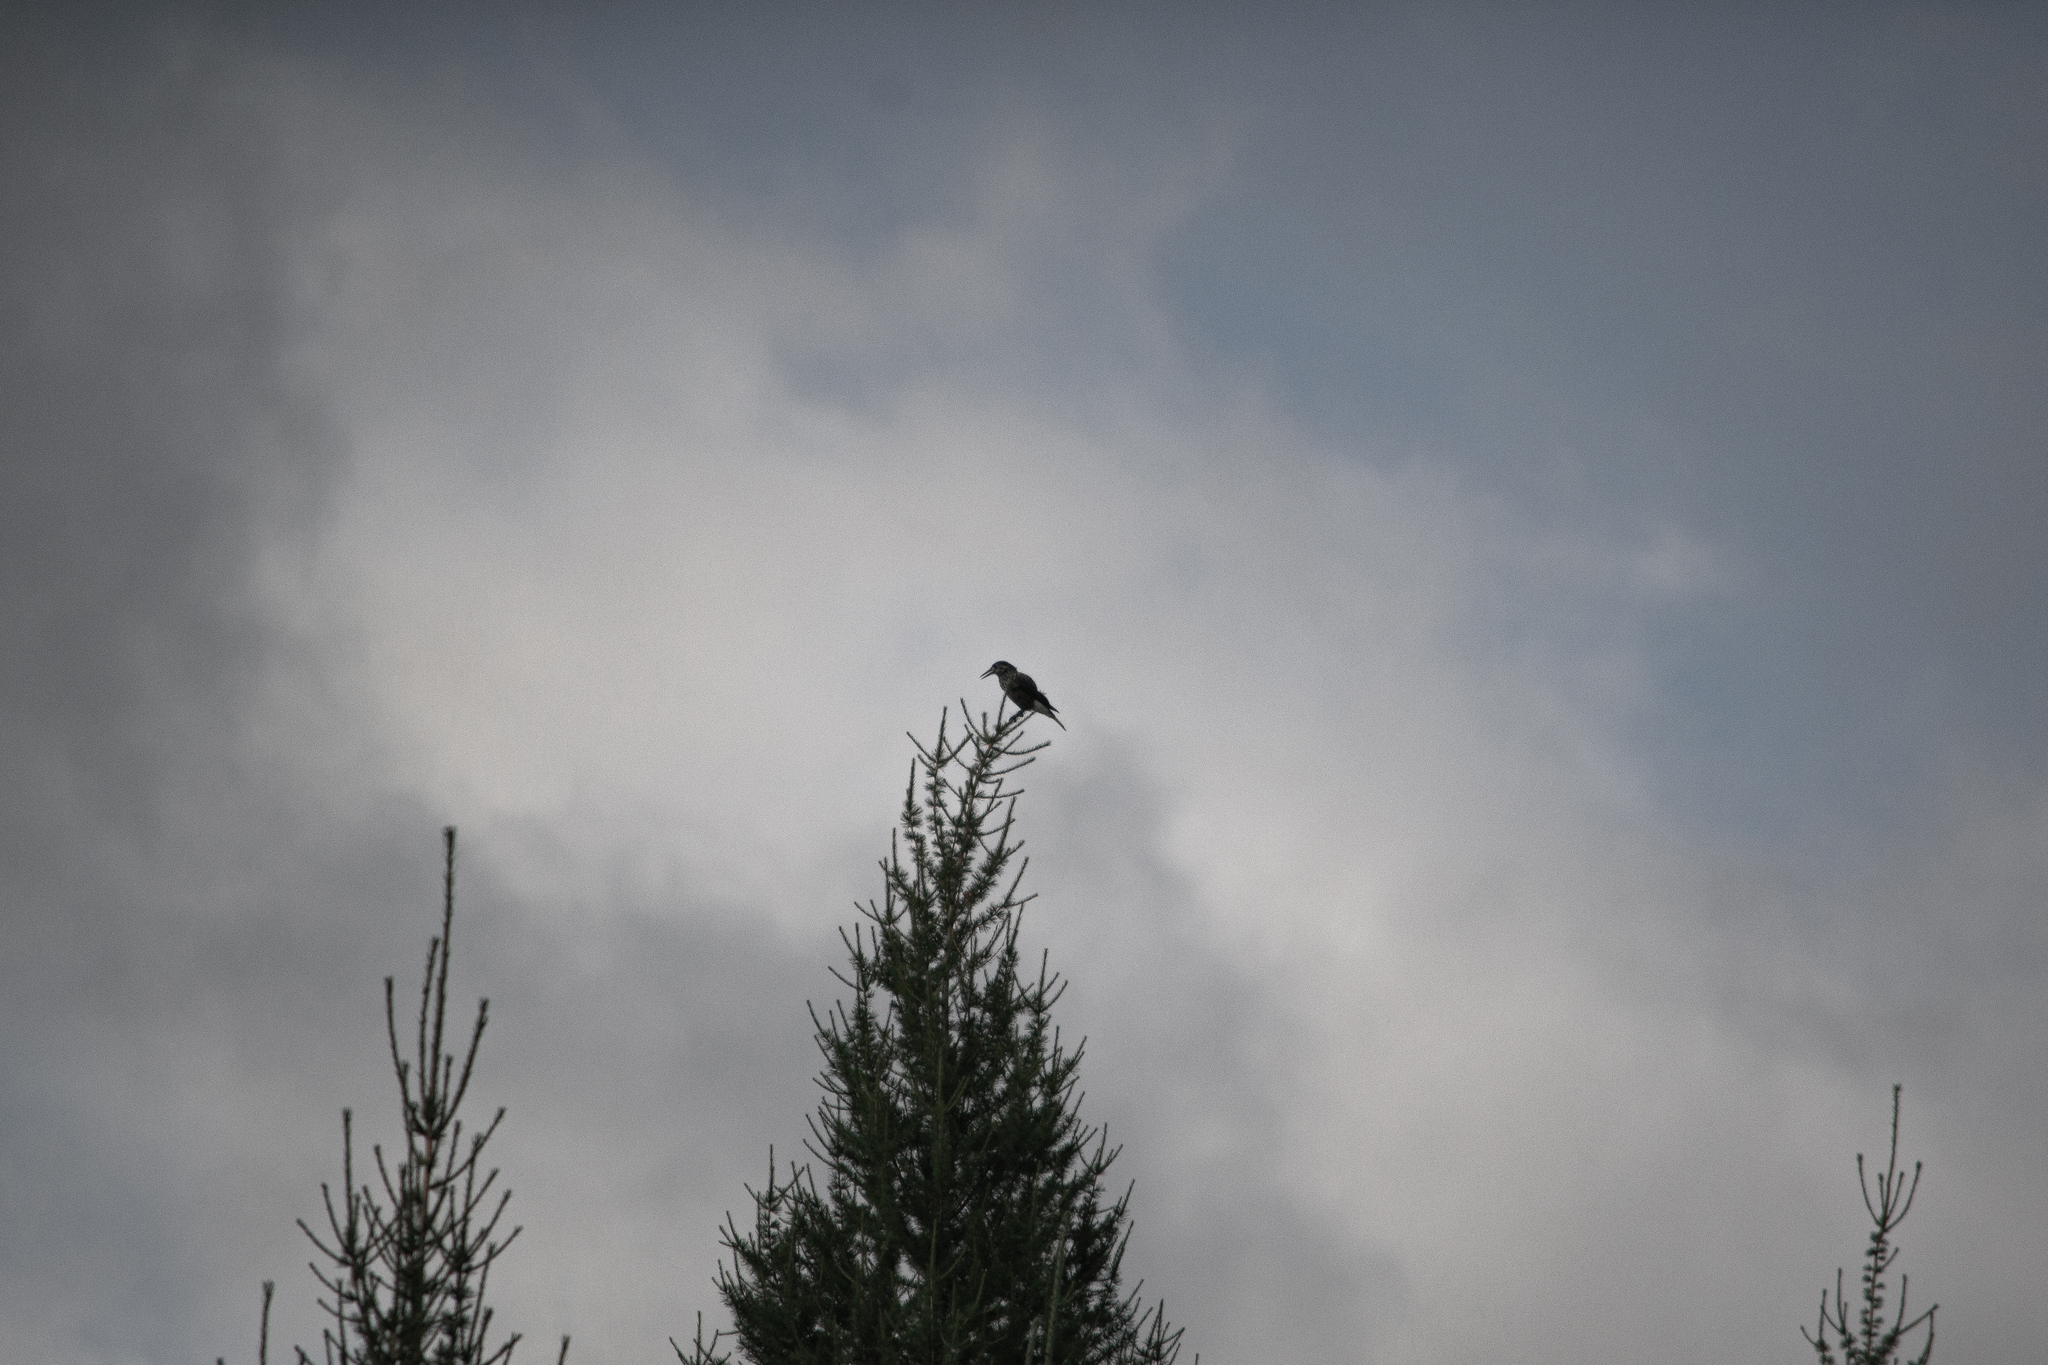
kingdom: Animalia
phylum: Chordata
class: Aves
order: Passeriformes
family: Corvidae
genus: Nucifraga
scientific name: Nucifraga caryocatactes
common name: Spotted nutcracker
